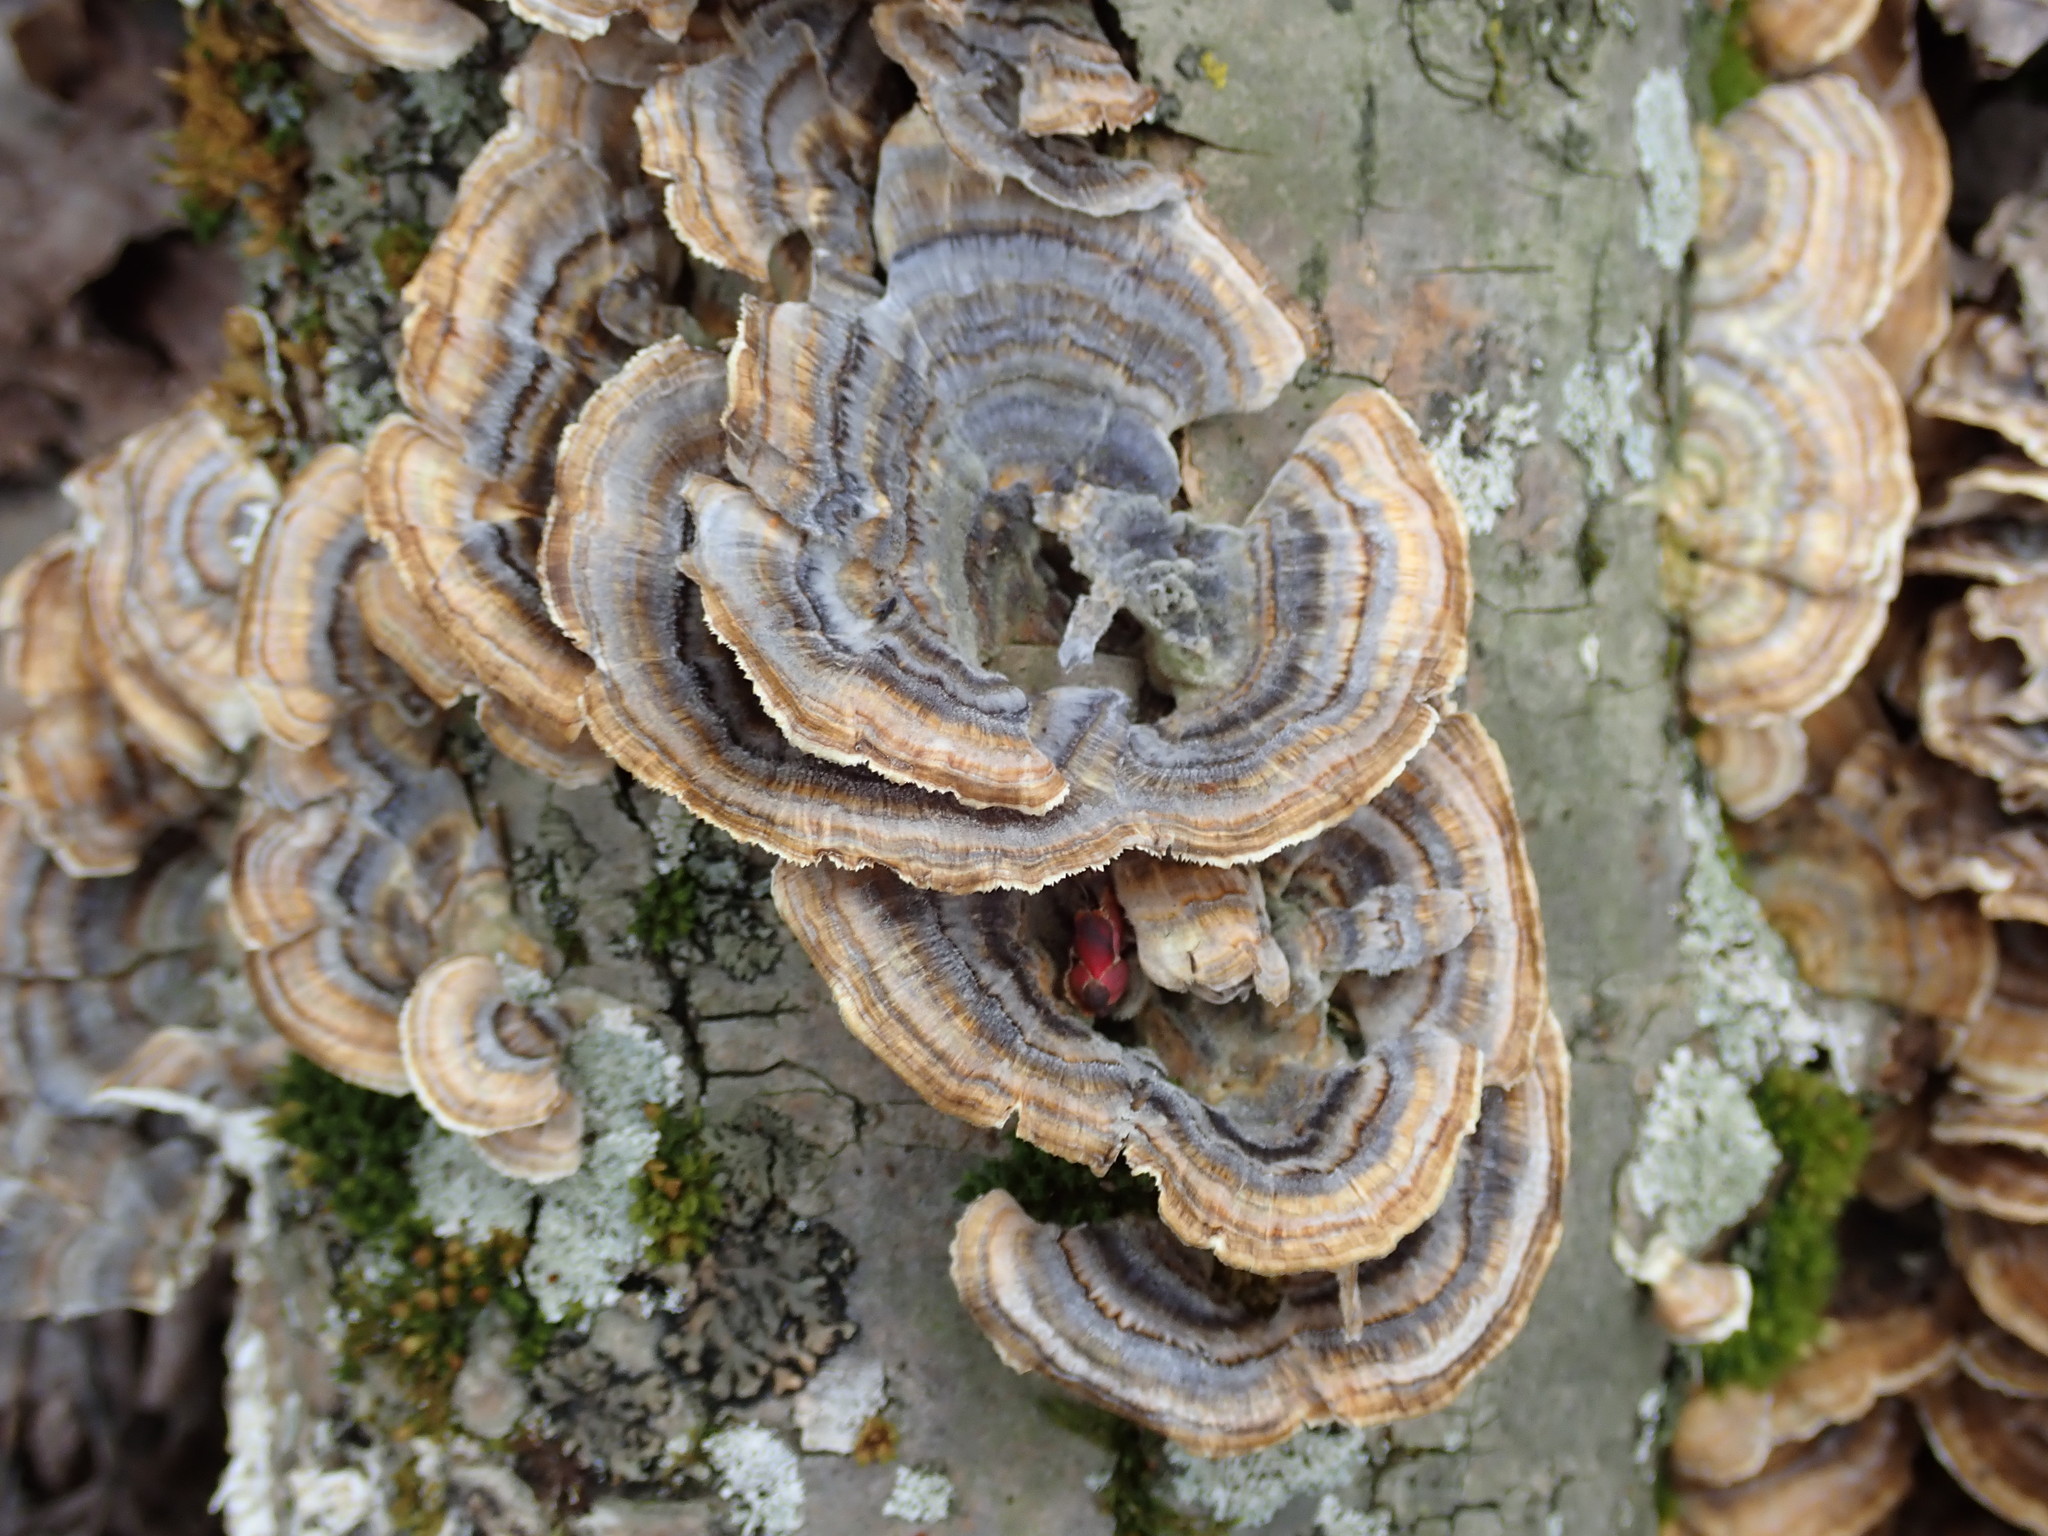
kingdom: Fungi
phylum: Basidiomycota
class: Agaricomycetes
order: Polyporales
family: Polyporaceae
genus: Trametes
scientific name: Trametes versicolor
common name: Turkeytail
